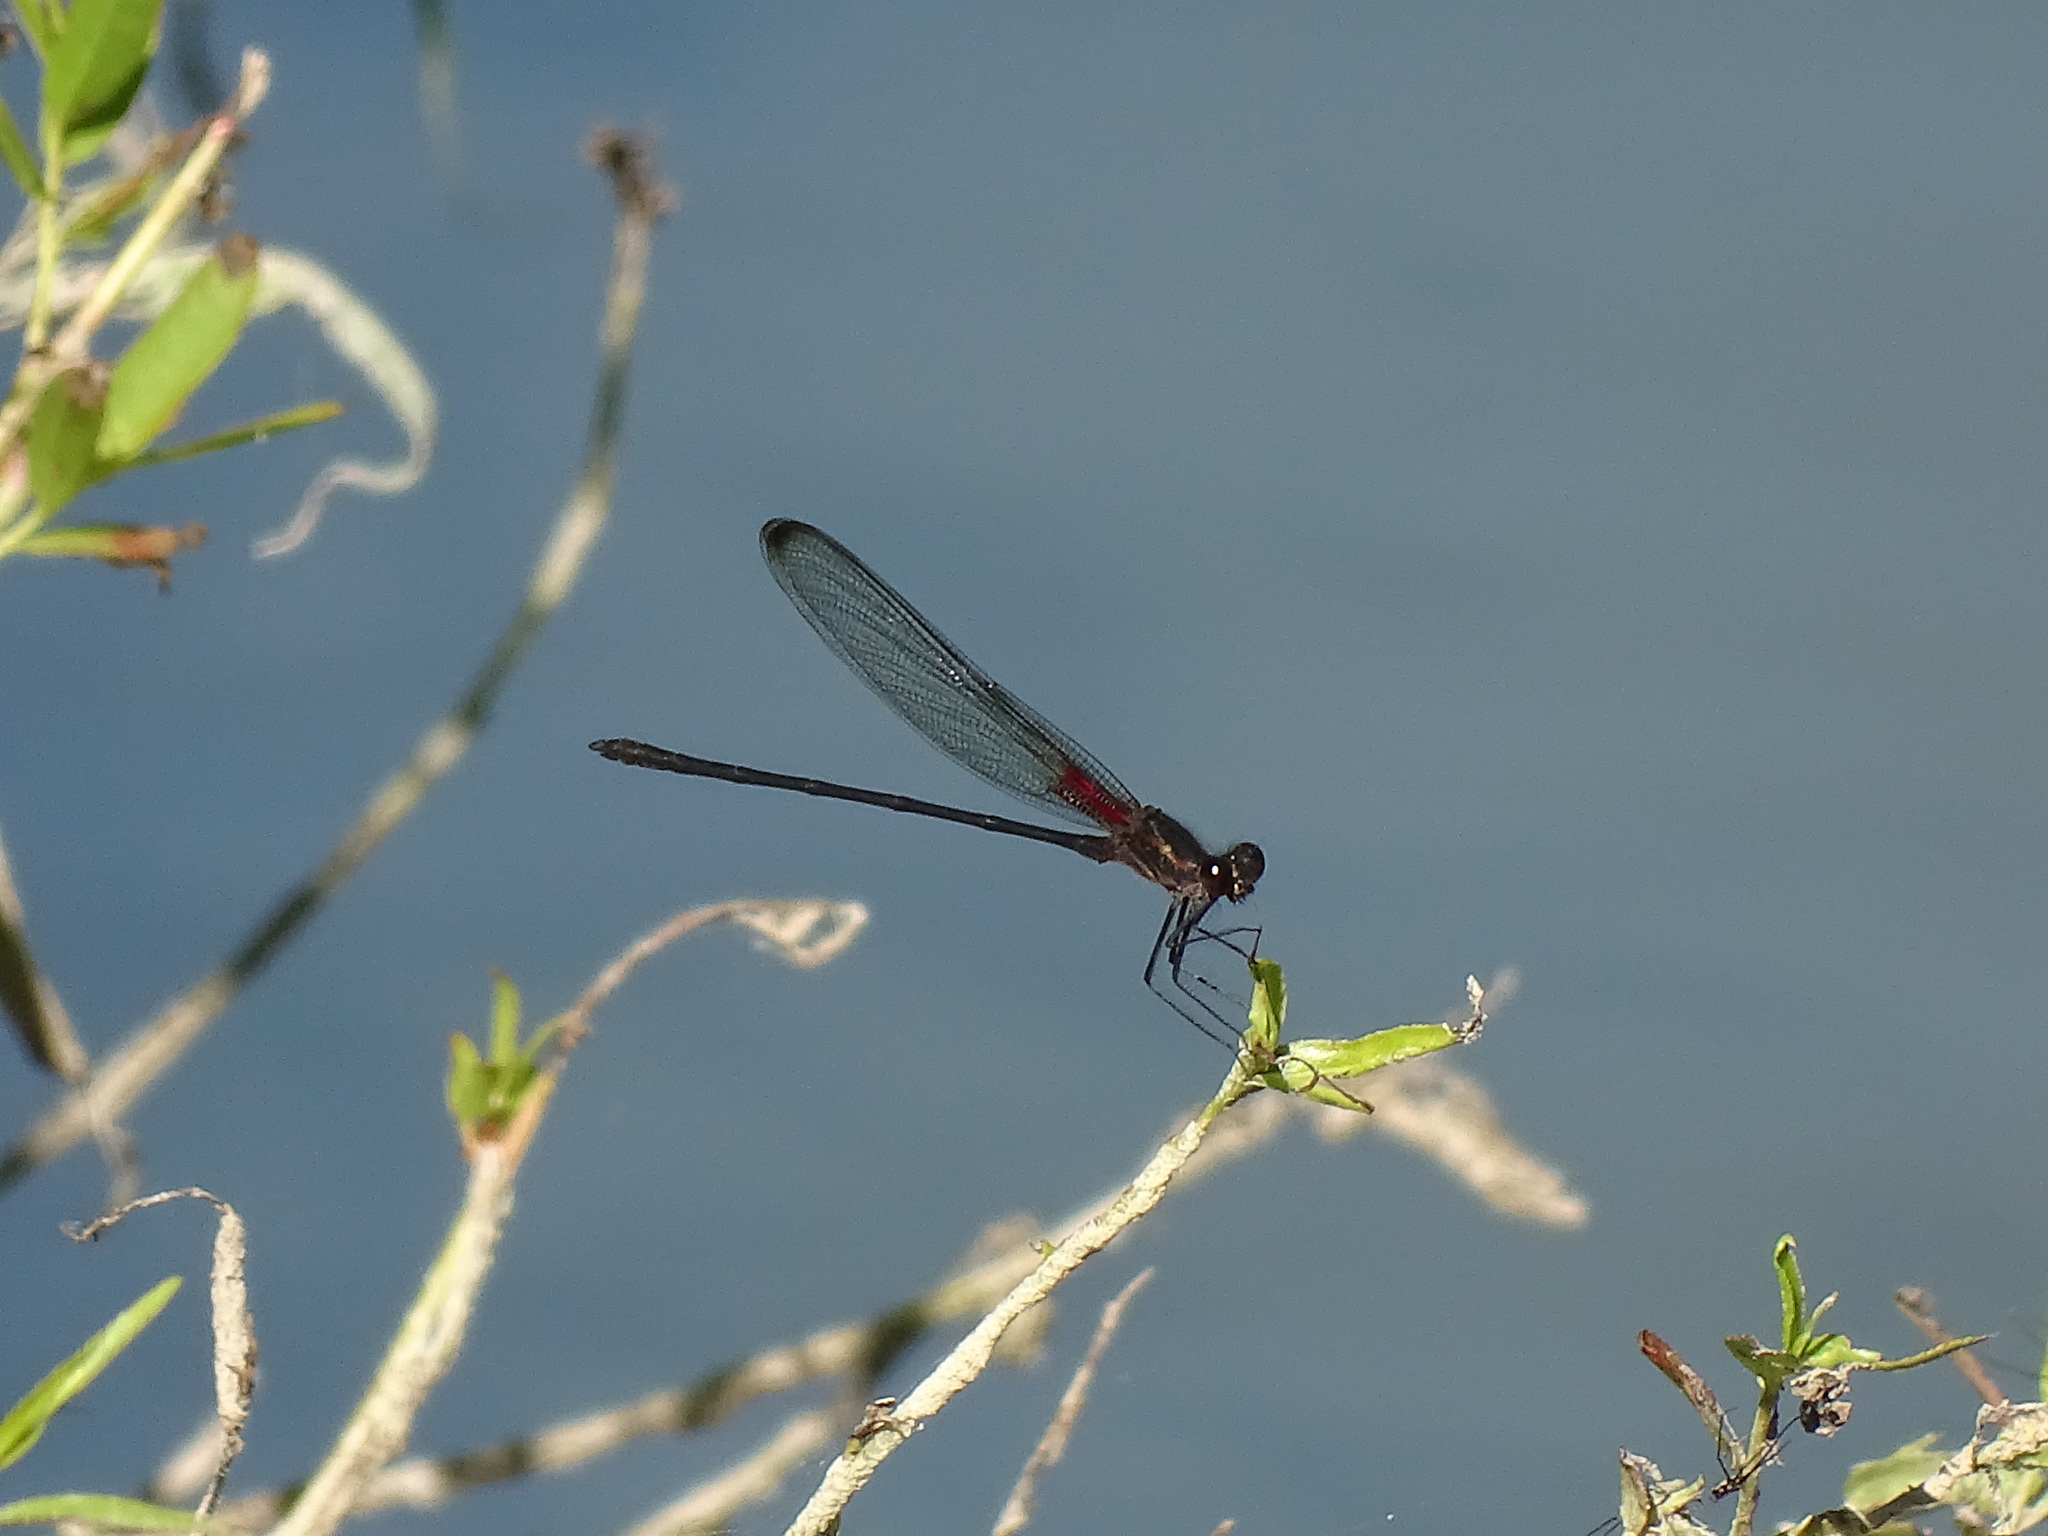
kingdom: Animalia
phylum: Arthropoda
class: Insecta
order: Odonata
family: Calopterygidae
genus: Hetaerina
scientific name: Hetaerina titia
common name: Smoky rubyspot
